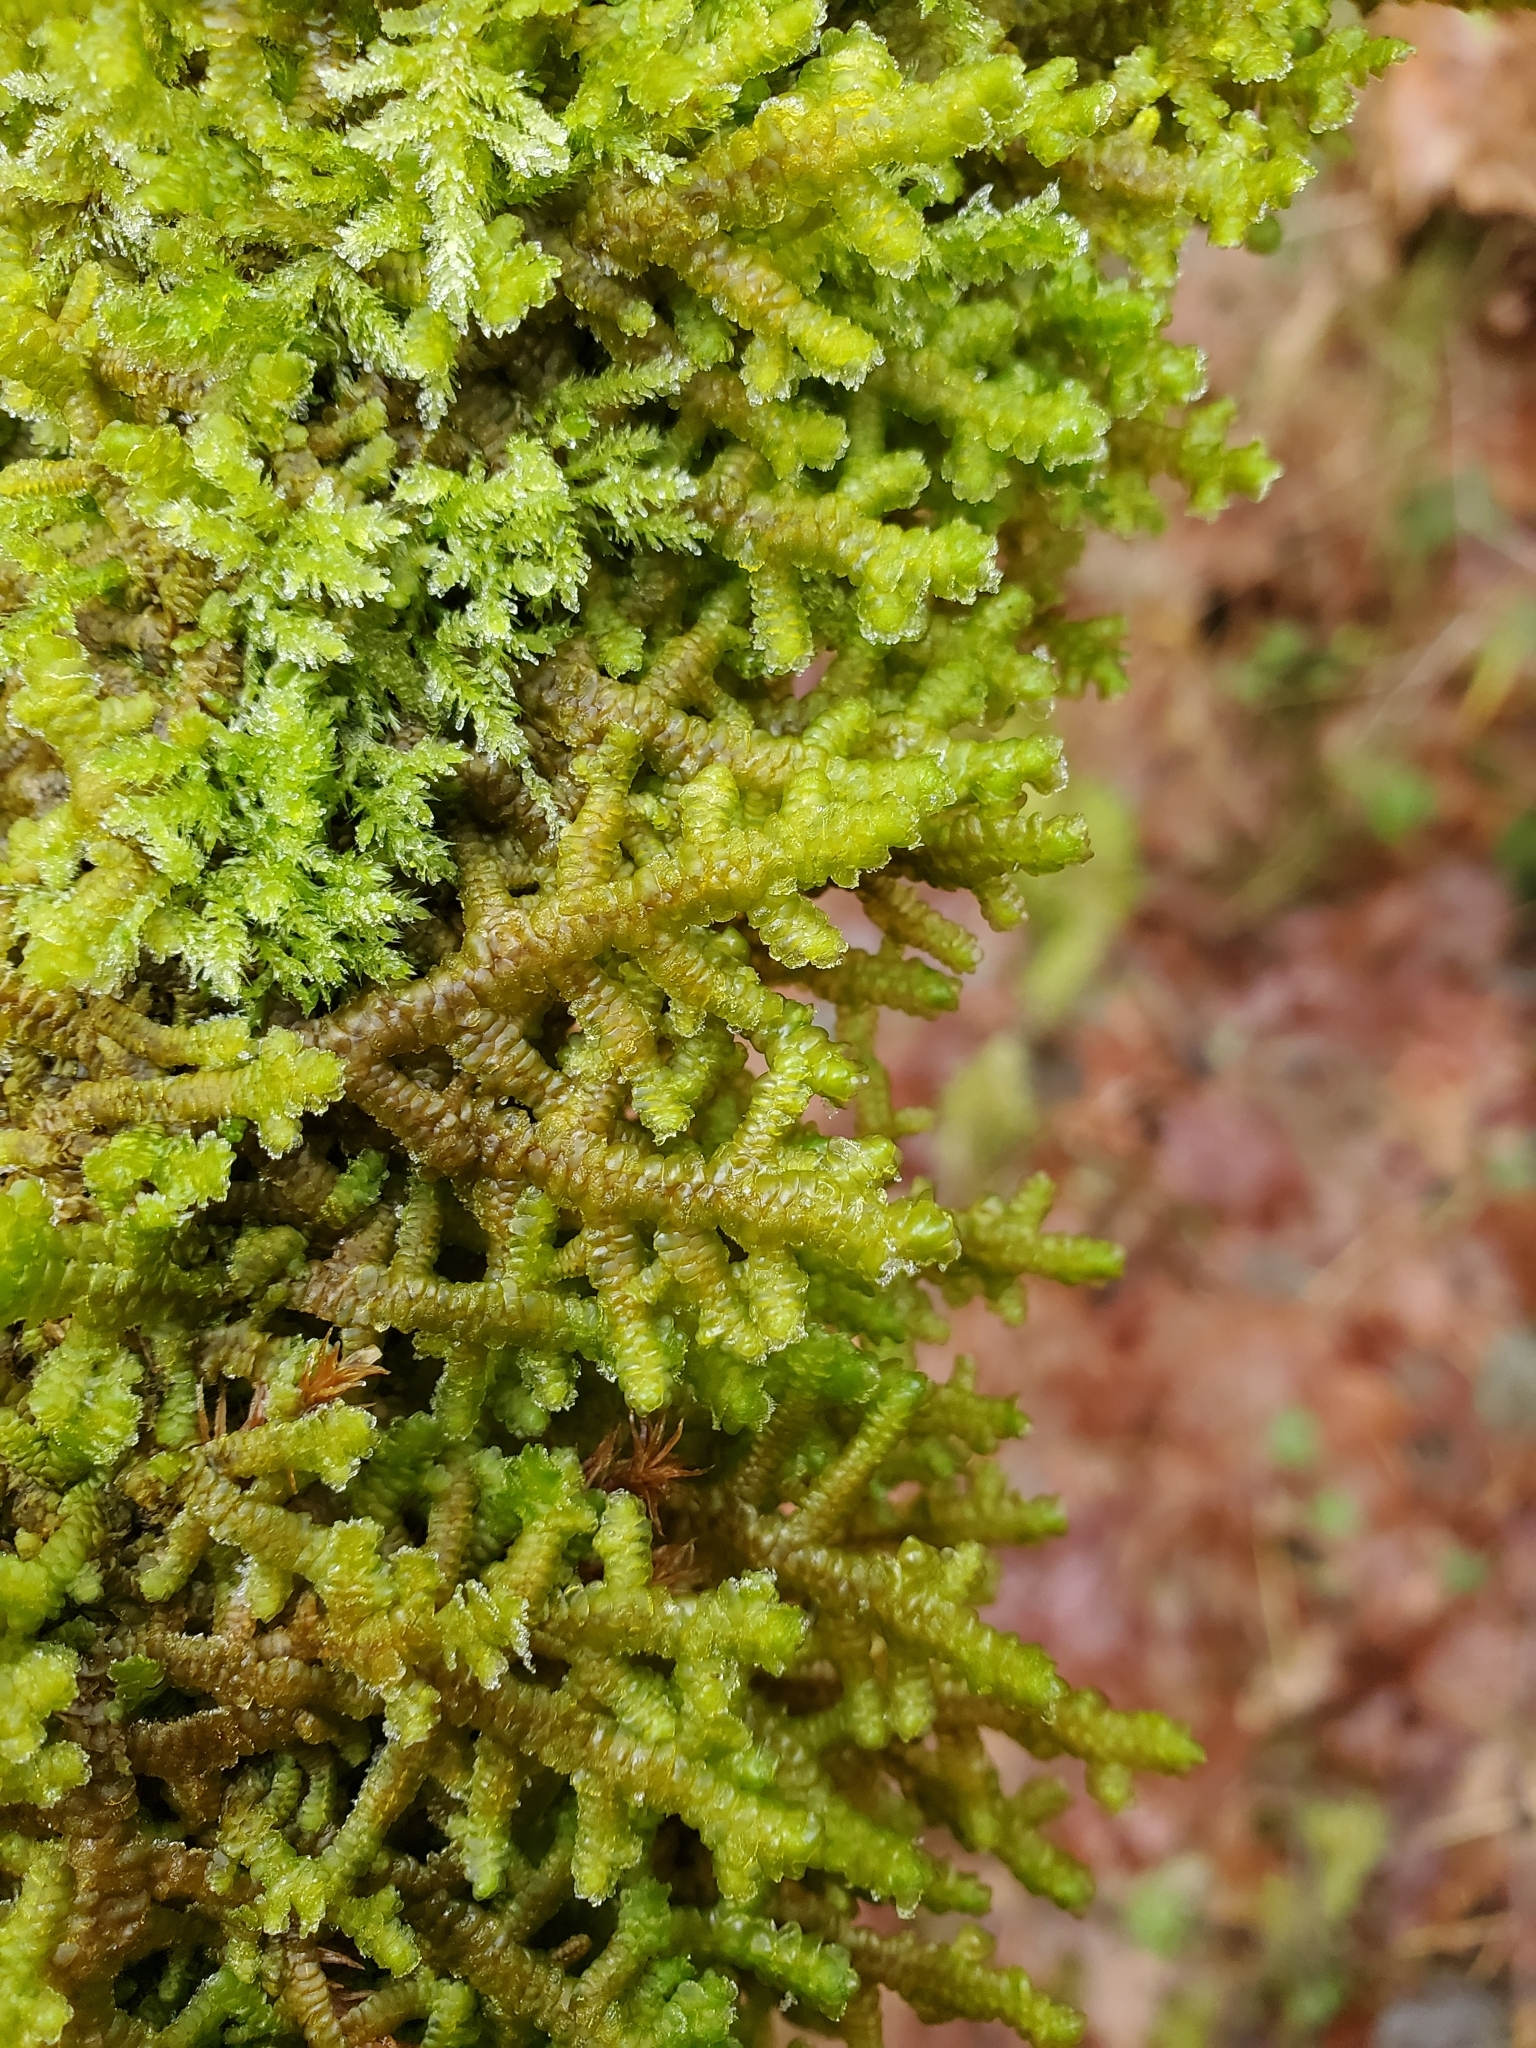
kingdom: Plantae
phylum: Marchantiophyta
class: Jungermanniopsida
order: Porellales
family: Porellaceae
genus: Porella
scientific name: Porella navicularis
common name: Tree ruffle liverwort
